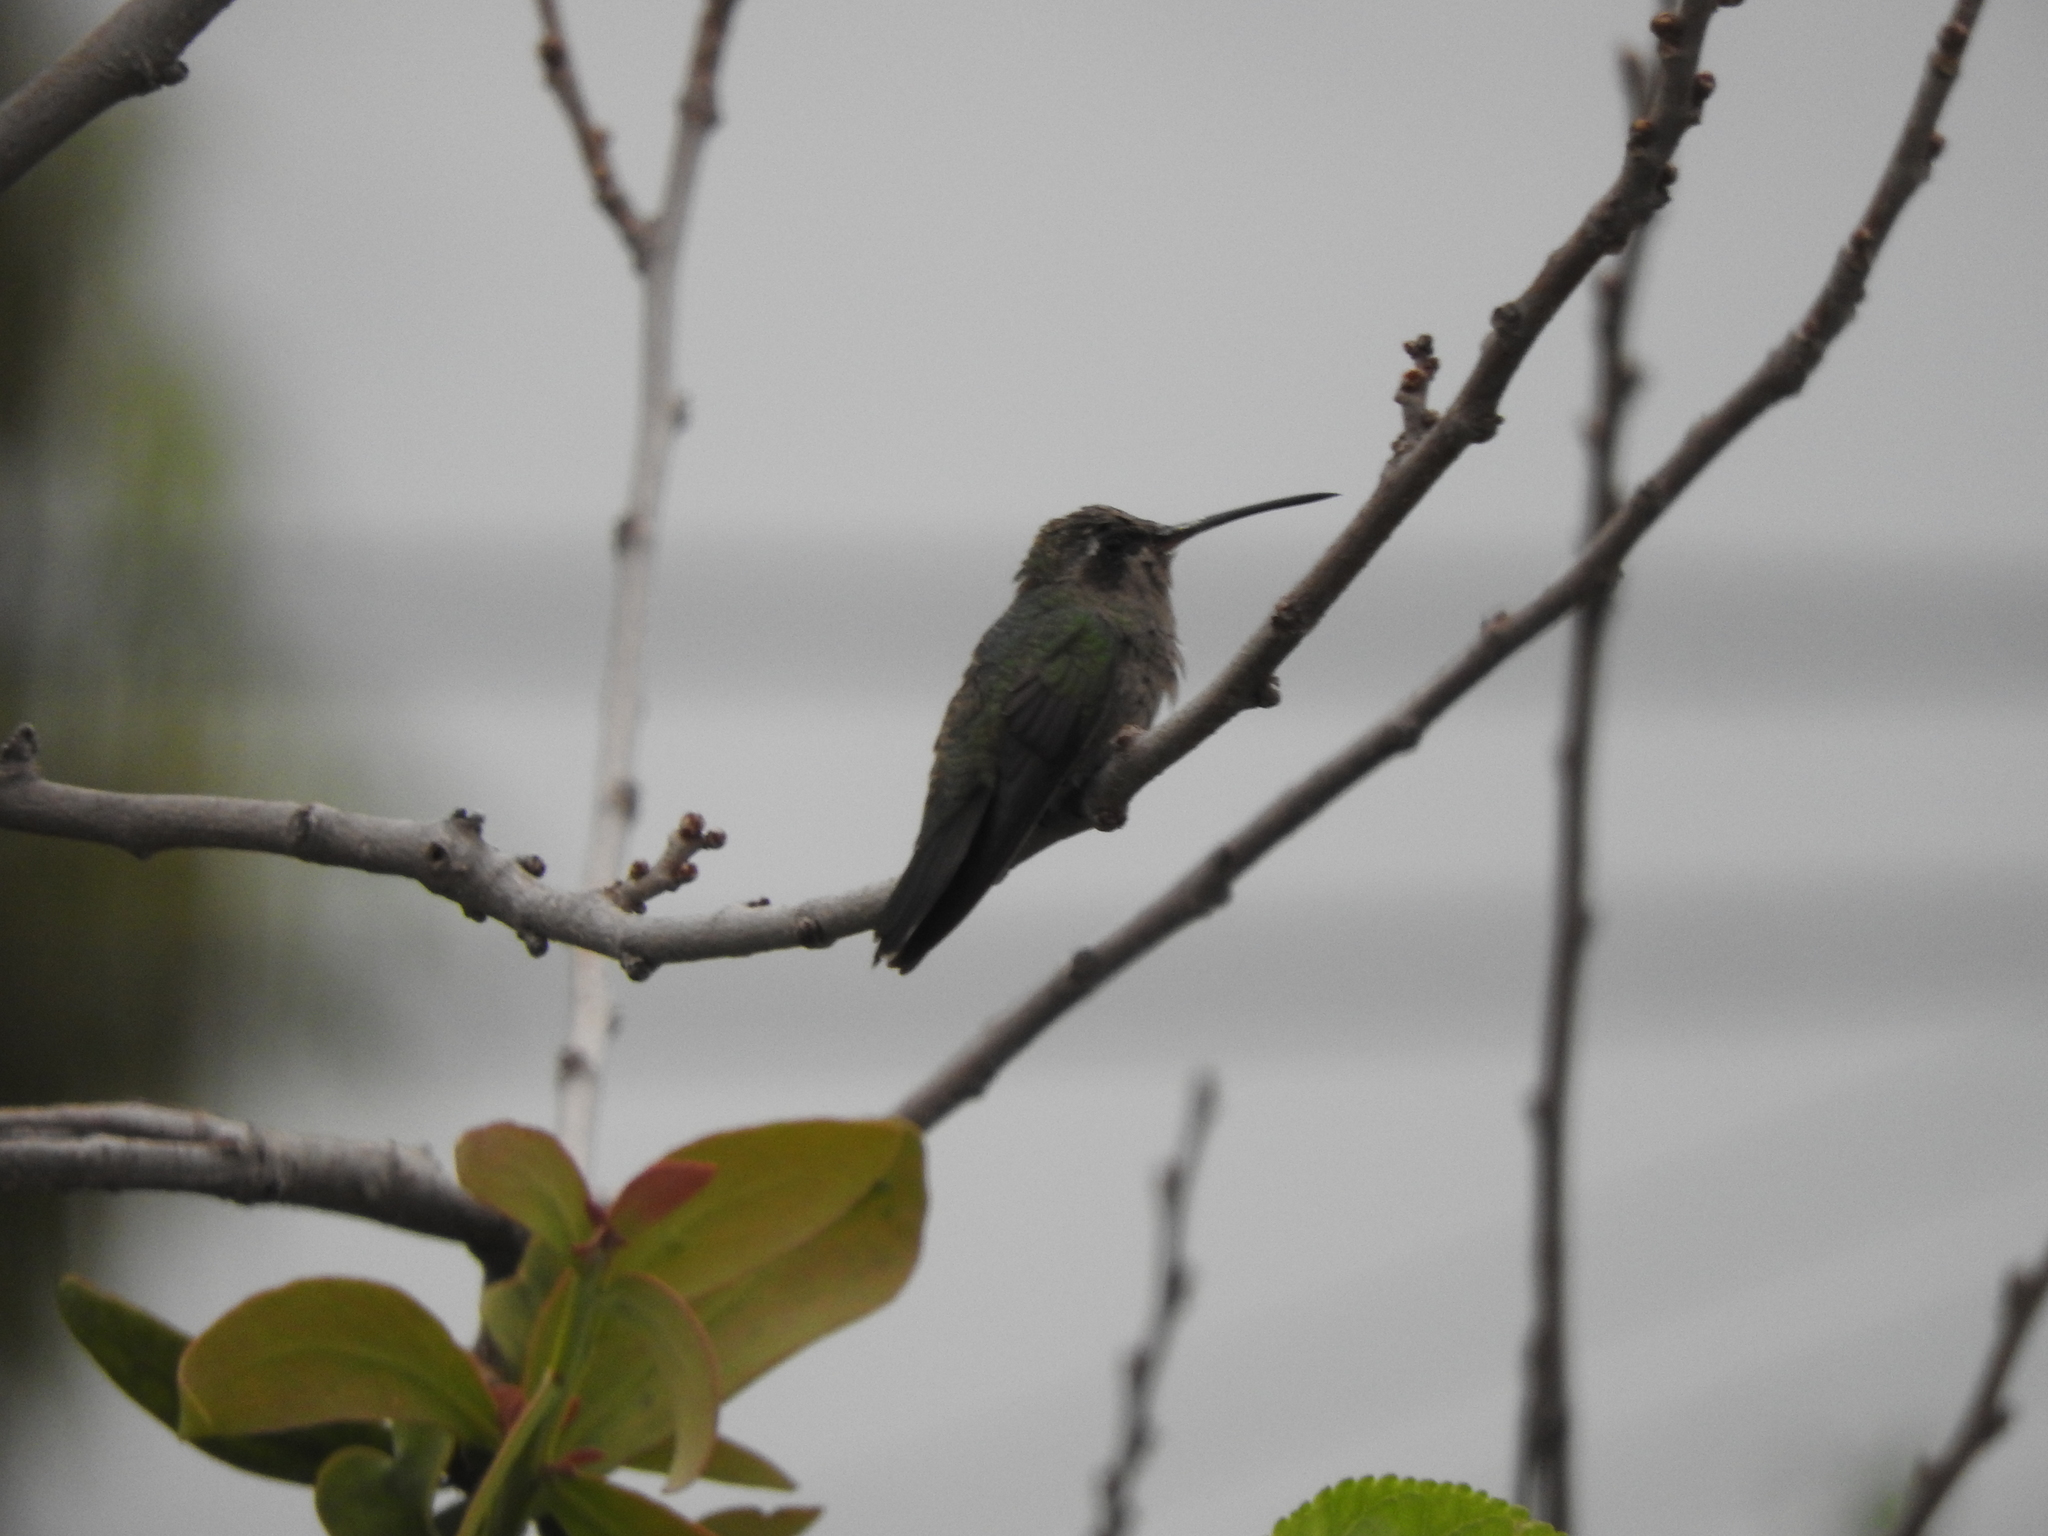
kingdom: Animalia
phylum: Chordata
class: Aves
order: Apodiformes
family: Trochilidae
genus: Cynanthus
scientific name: Cynanthus latirostris
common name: Broad-billed hummingbird
